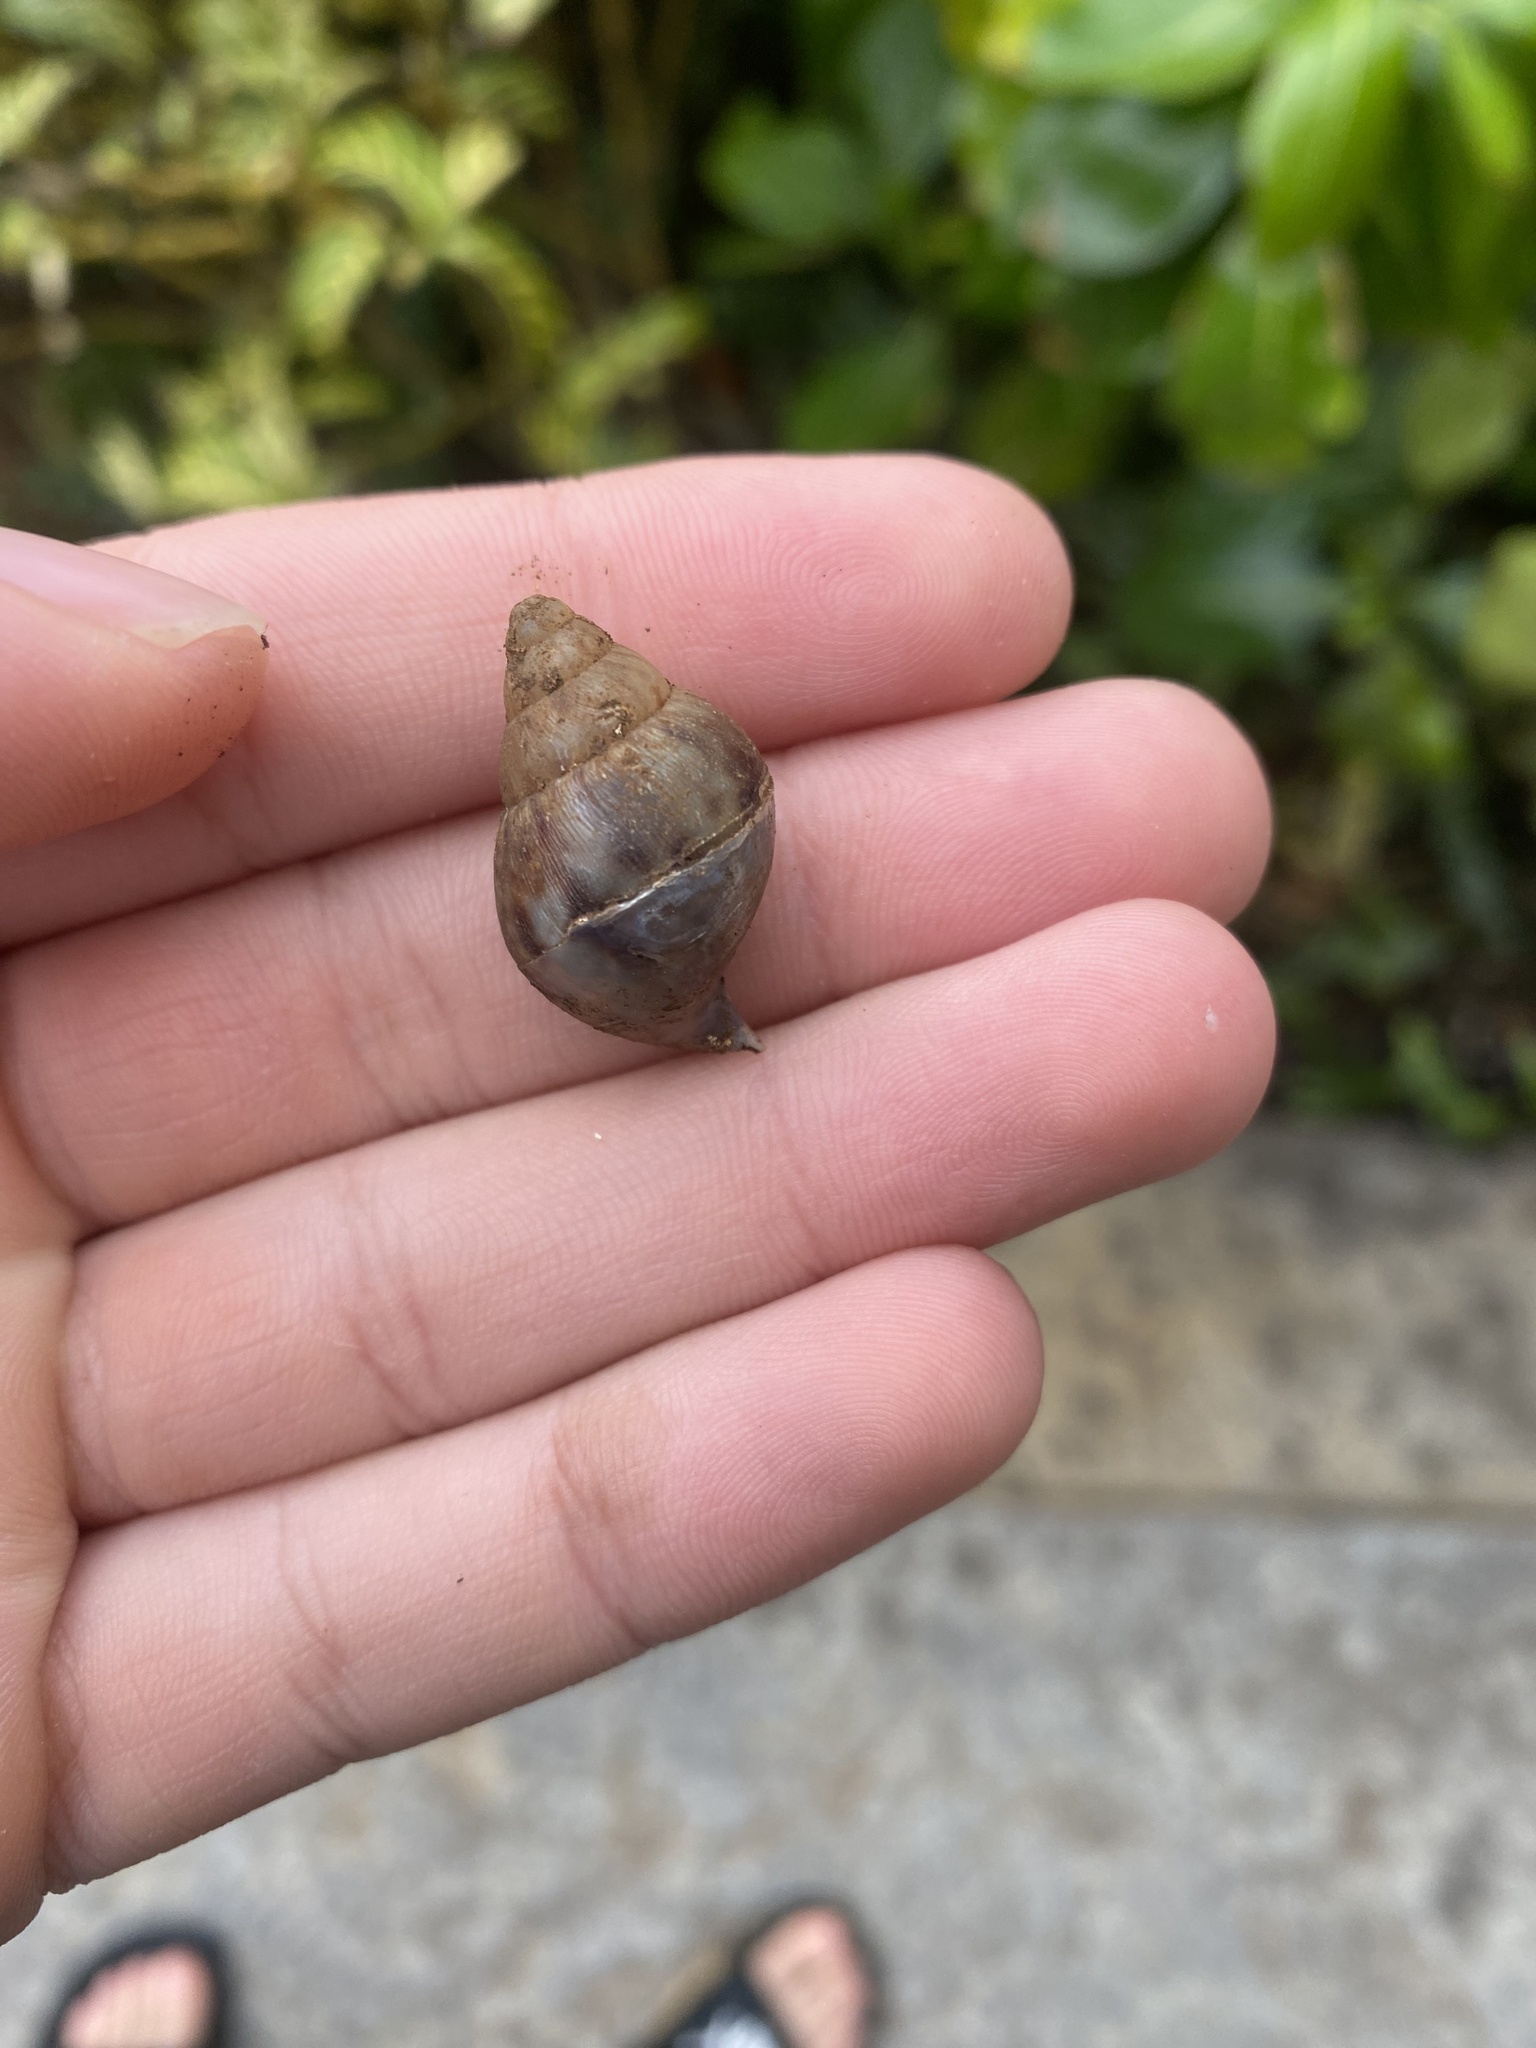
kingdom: Animalia
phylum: Mollusca
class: Gastropoda
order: Stylommatophora
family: Achatinidae
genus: Lissachatina
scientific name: Lissachatina fulica
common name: Giant african snail
